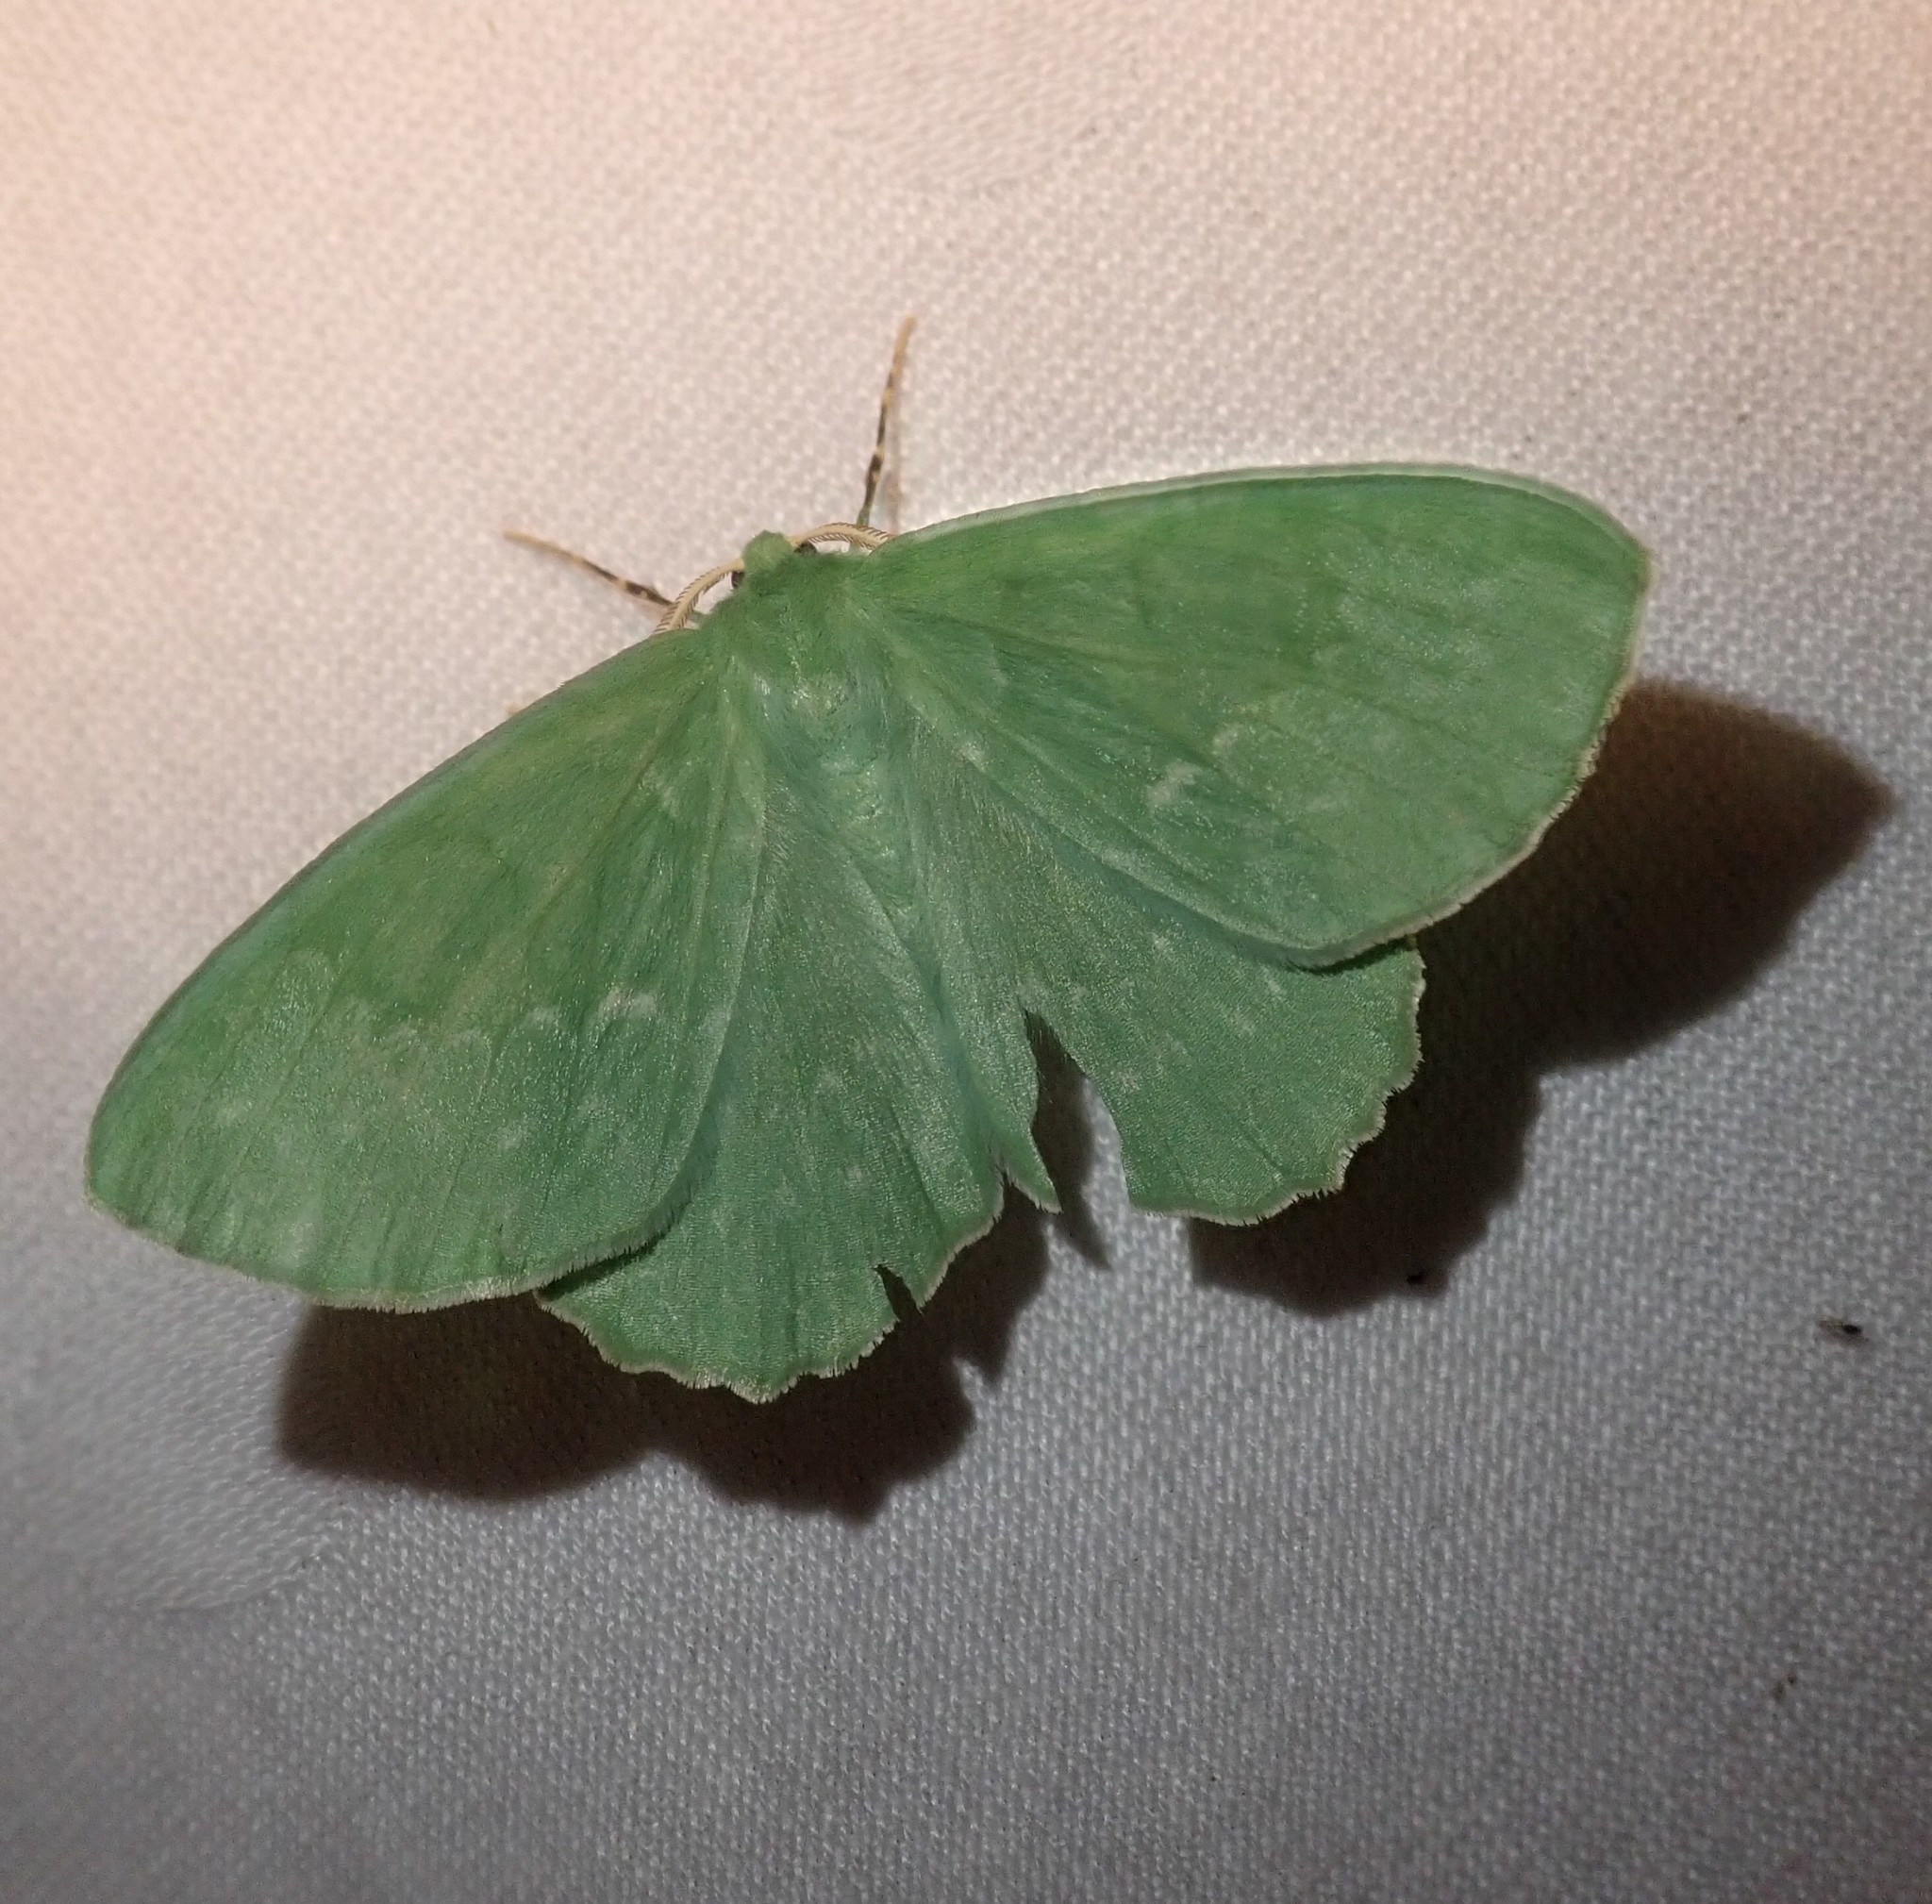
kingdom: Animalia
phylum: Arthropoda
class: Insecta
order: Lepidoptera
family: Geometridae
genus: Geometra
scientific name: Geometra papilionaria
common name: Large emerald
